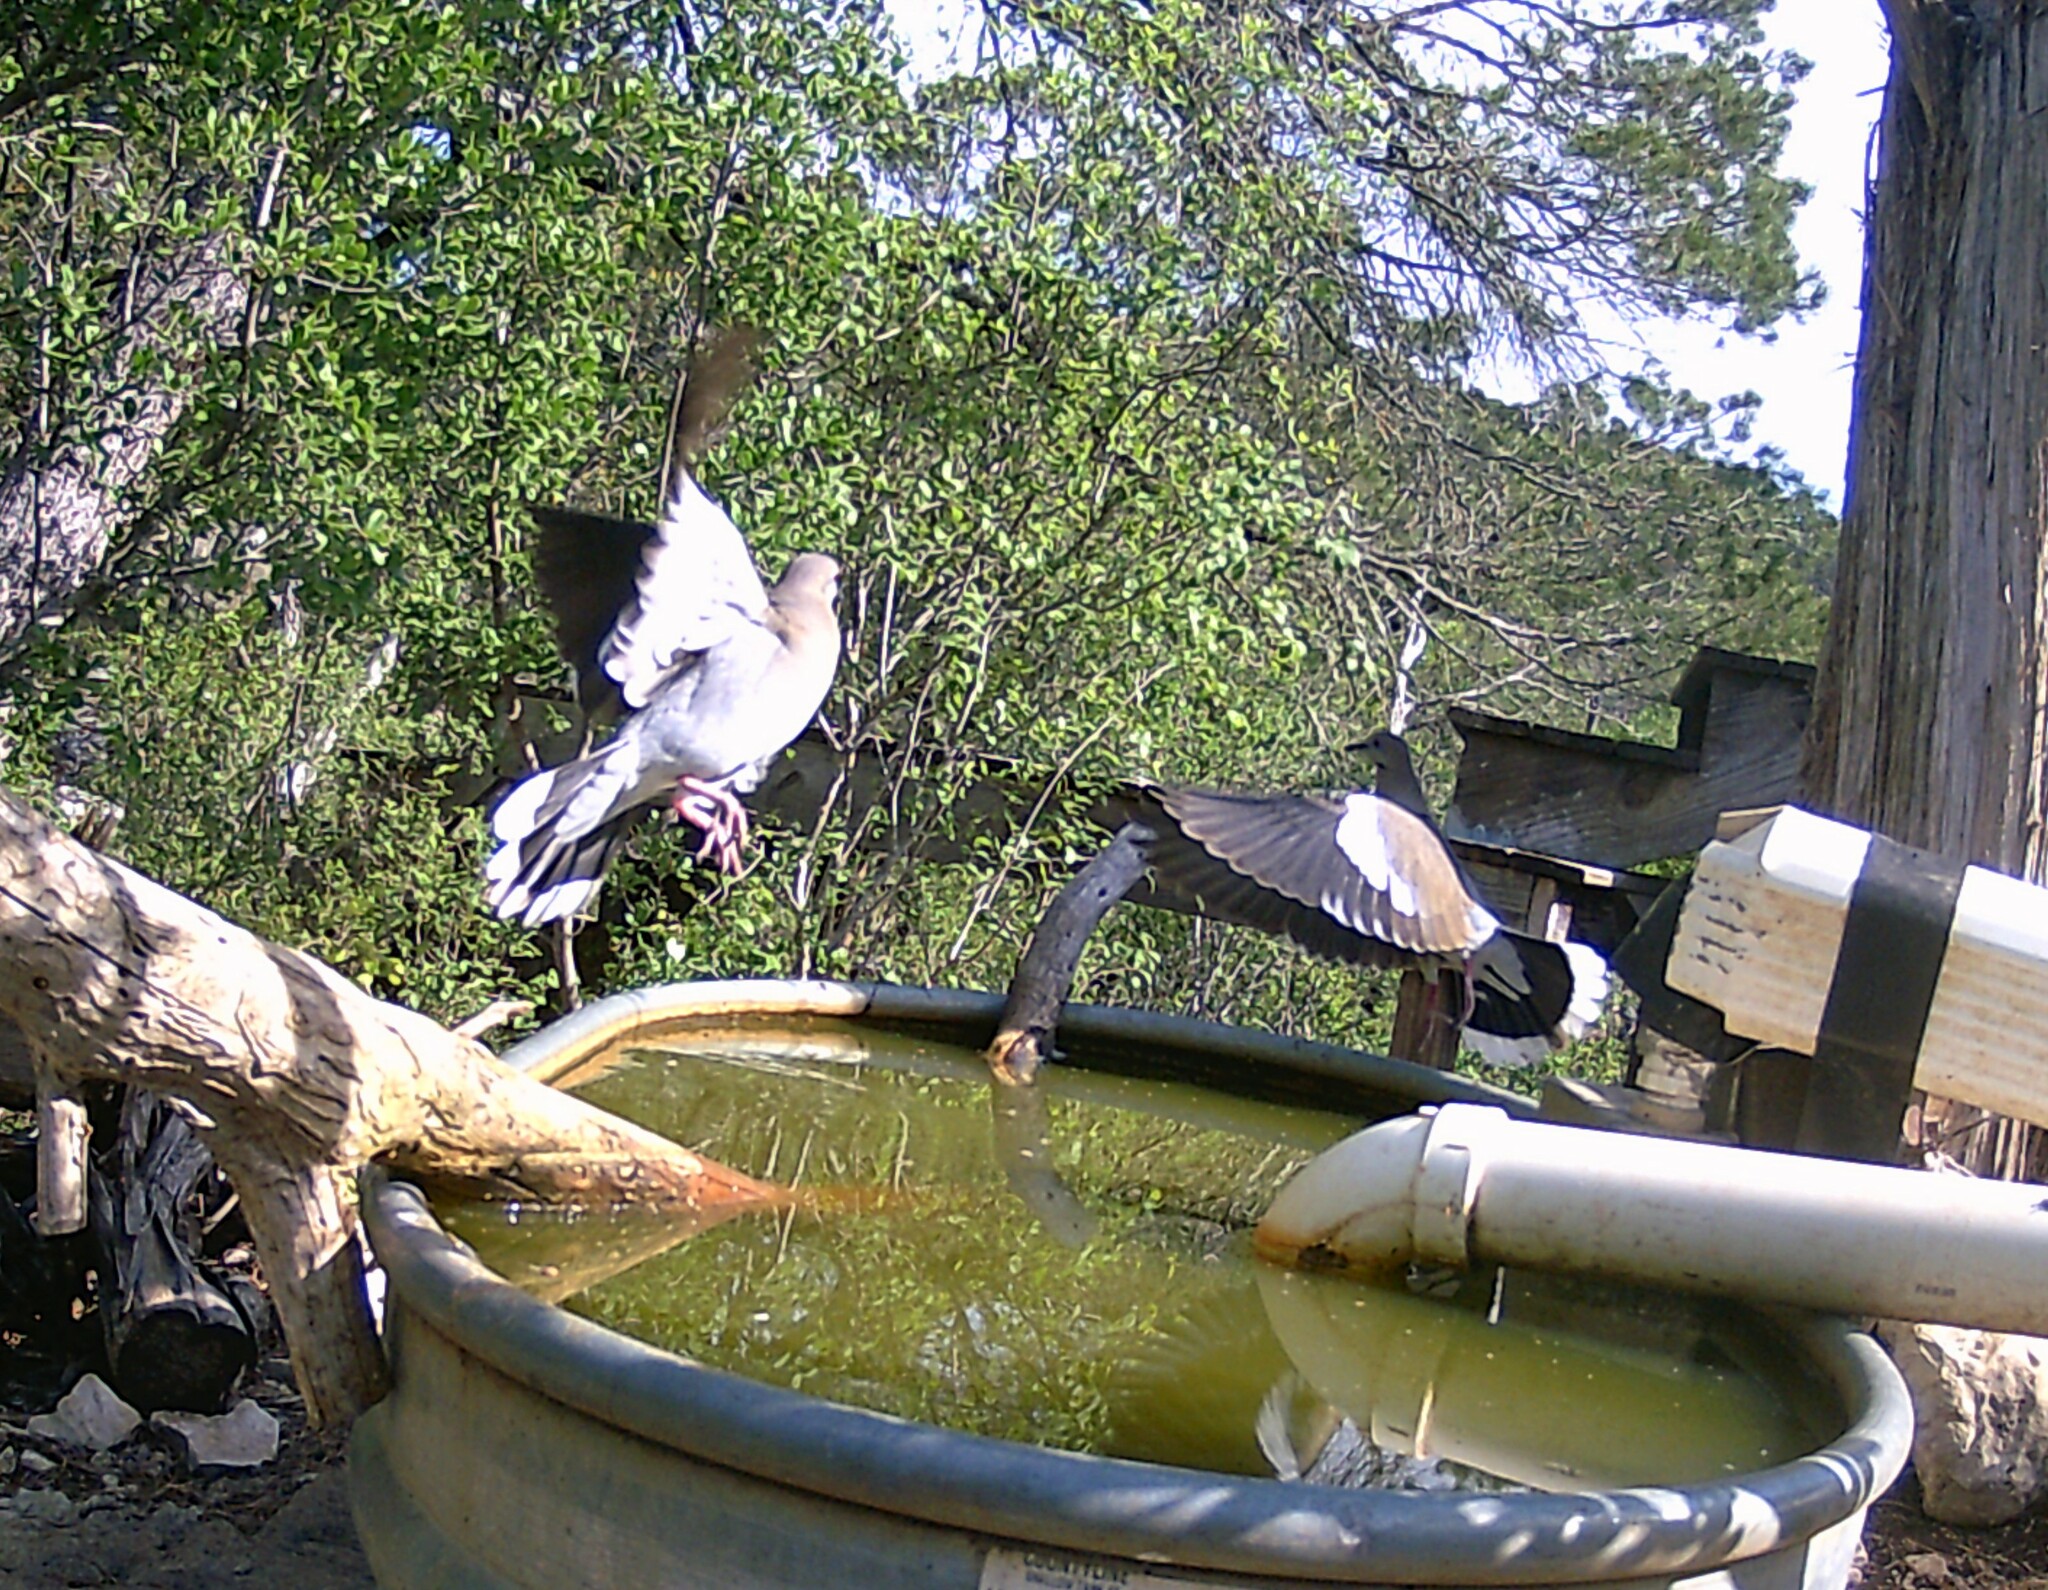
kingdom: Animalia
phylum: Chordata
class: Aves
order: Columbiformes
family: Columbidae
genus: Zenaida
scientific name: Zenaida asiatica
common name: White-winged dove
